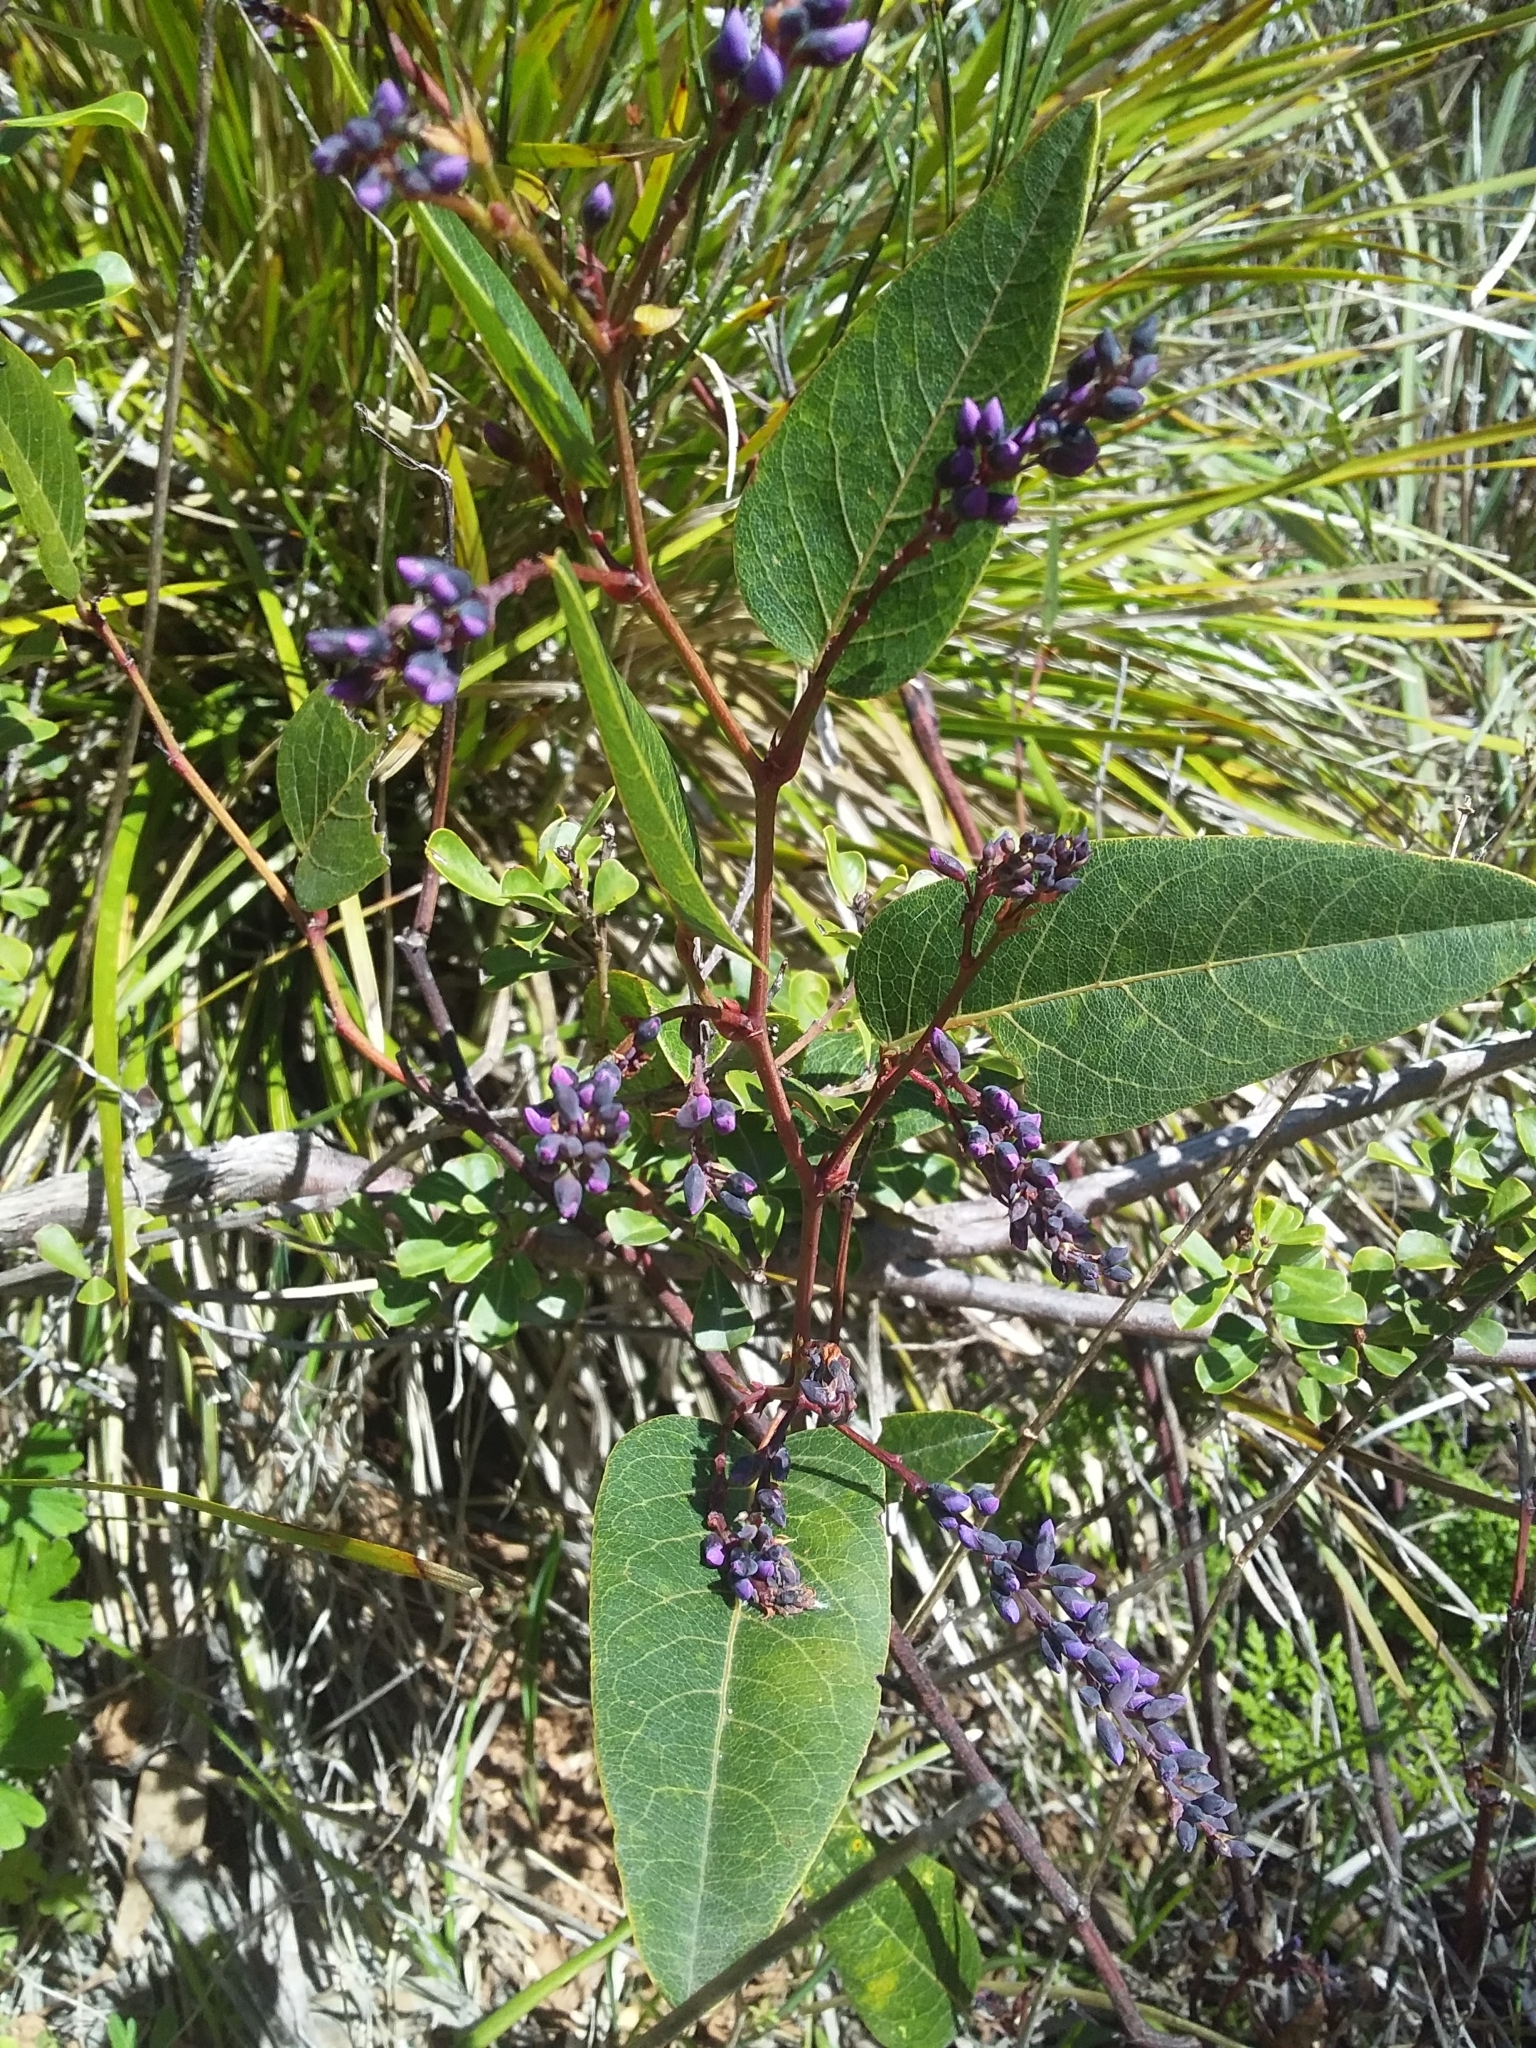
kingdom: Plantae
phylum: Tracheophyta
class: Magnoliopsida
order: Fabales
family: Fabaceae
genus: Hardenbergia
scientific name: Hardenbergia violacea
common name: Coral-pea
